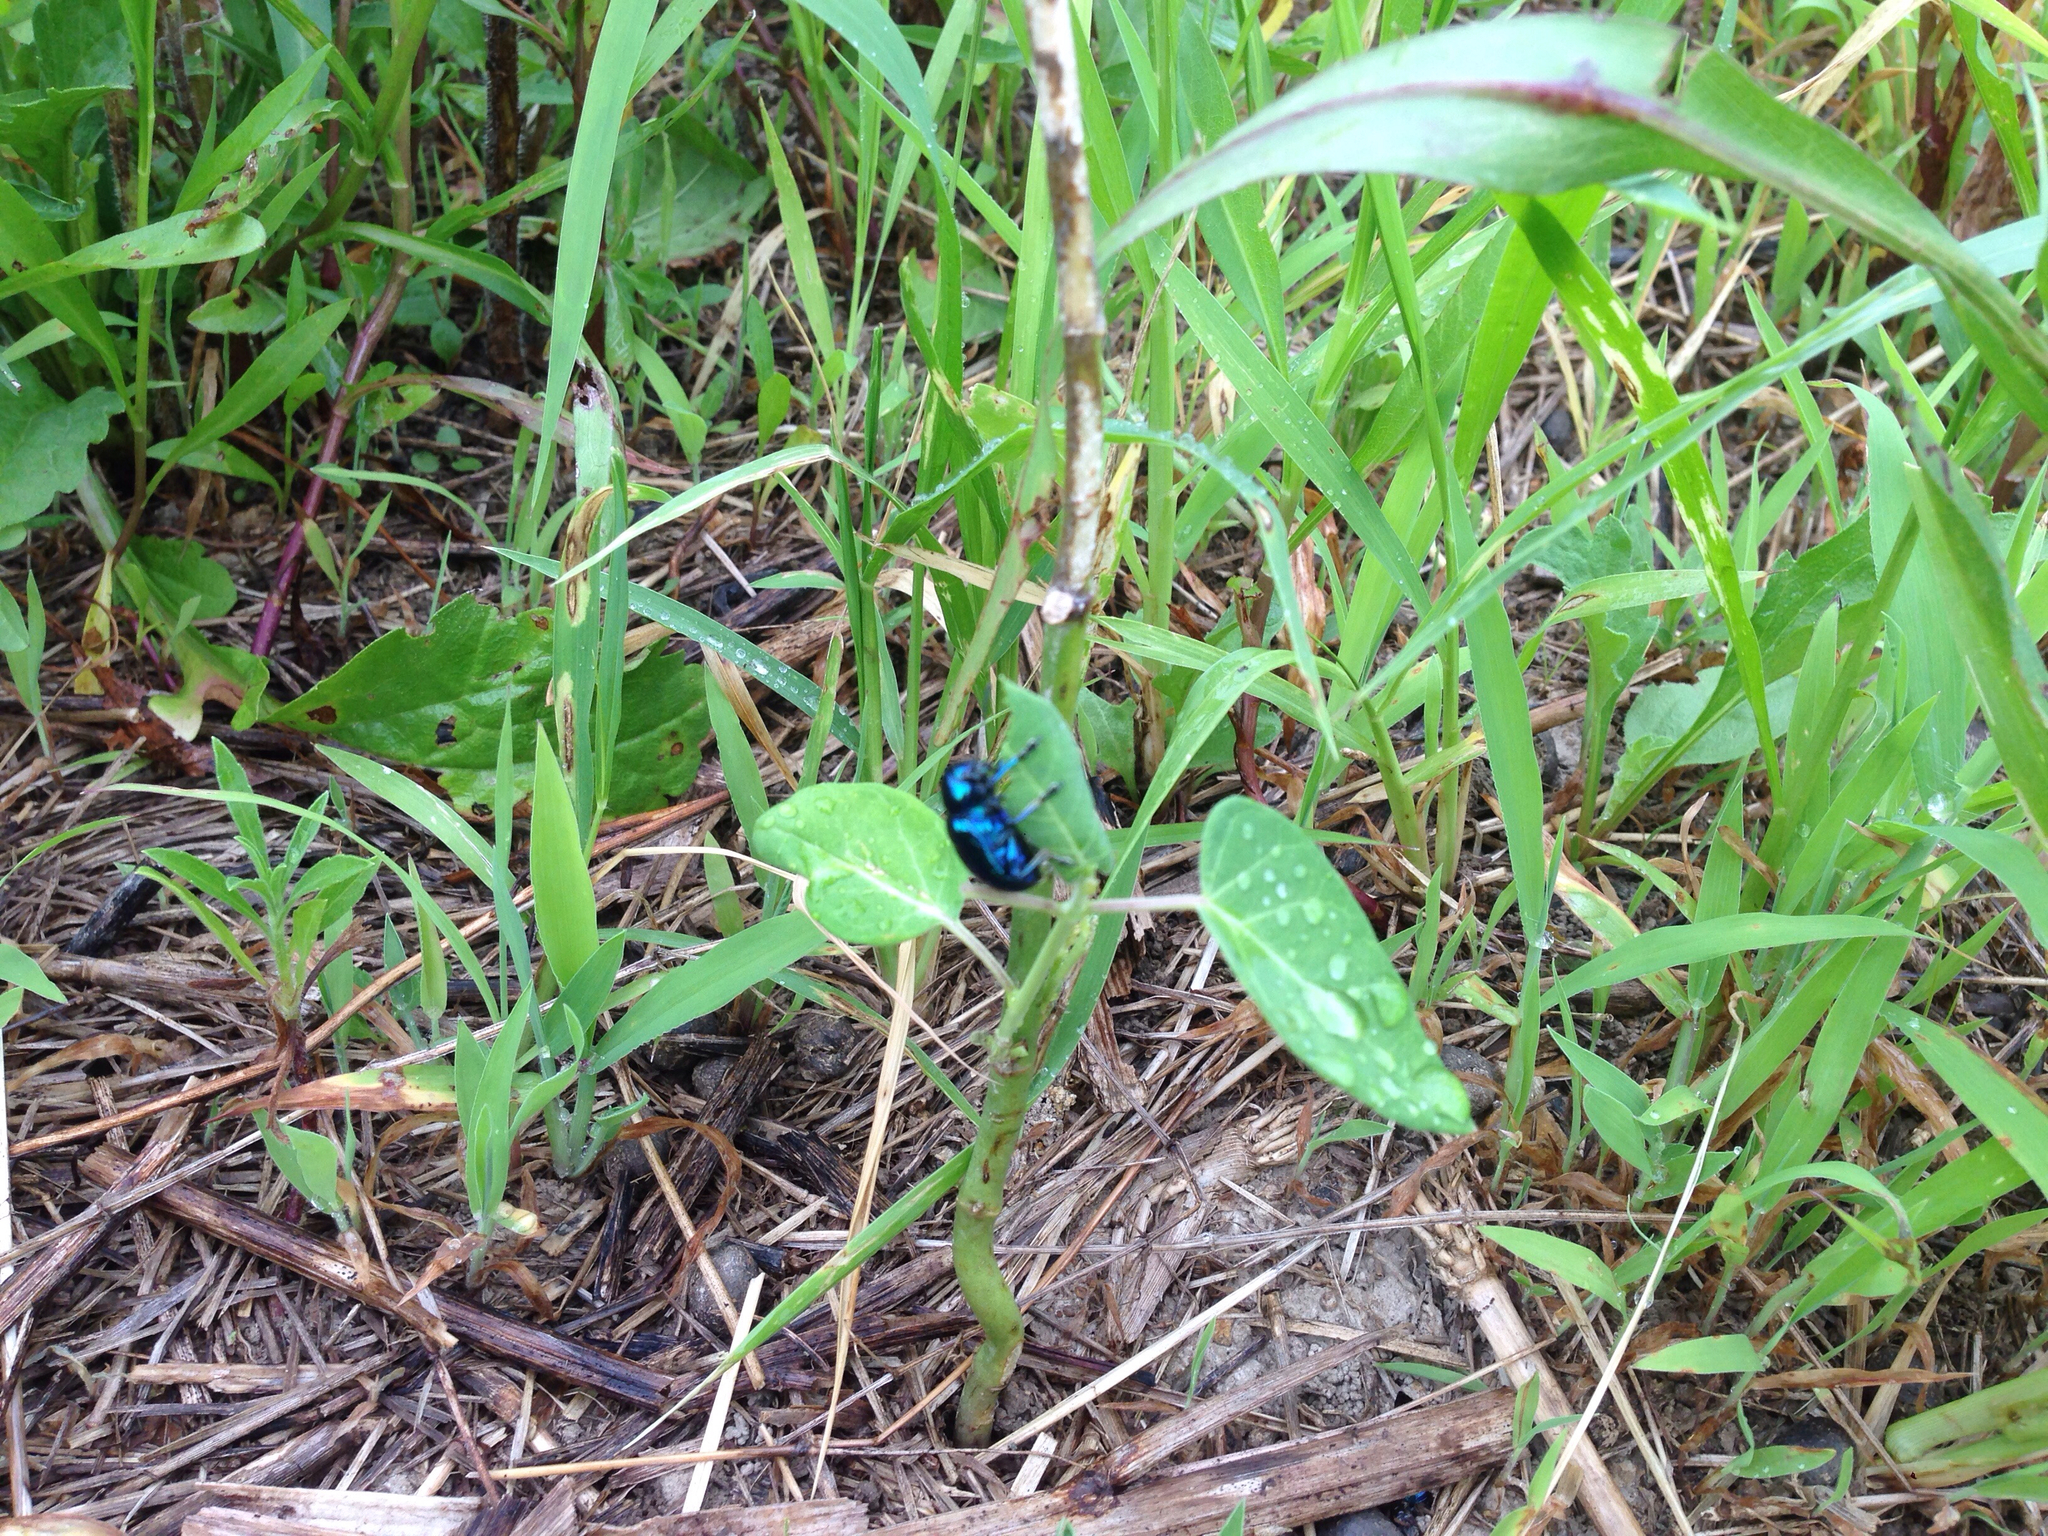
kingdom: Animalia
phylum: Arthropoda
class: Insecta
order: Coleoptera
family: Chrysomelidae
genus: Chrysochus
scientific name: Chrysochus chinensis
